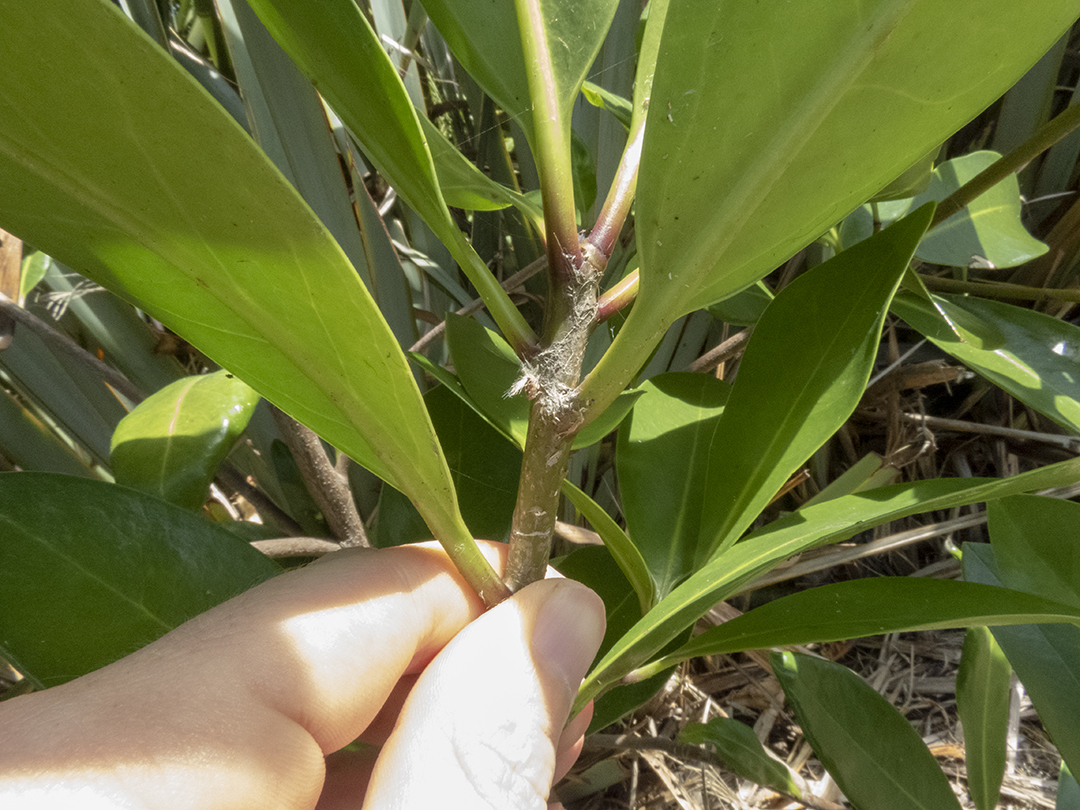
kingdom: Plantae
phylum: Tracheophyta
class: Magnoliopsida
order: Cucurbitales
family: Corynocarpaceae
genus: Corynocarpus
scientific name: Corynocarpus laevigatus
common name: New zealand laurel
